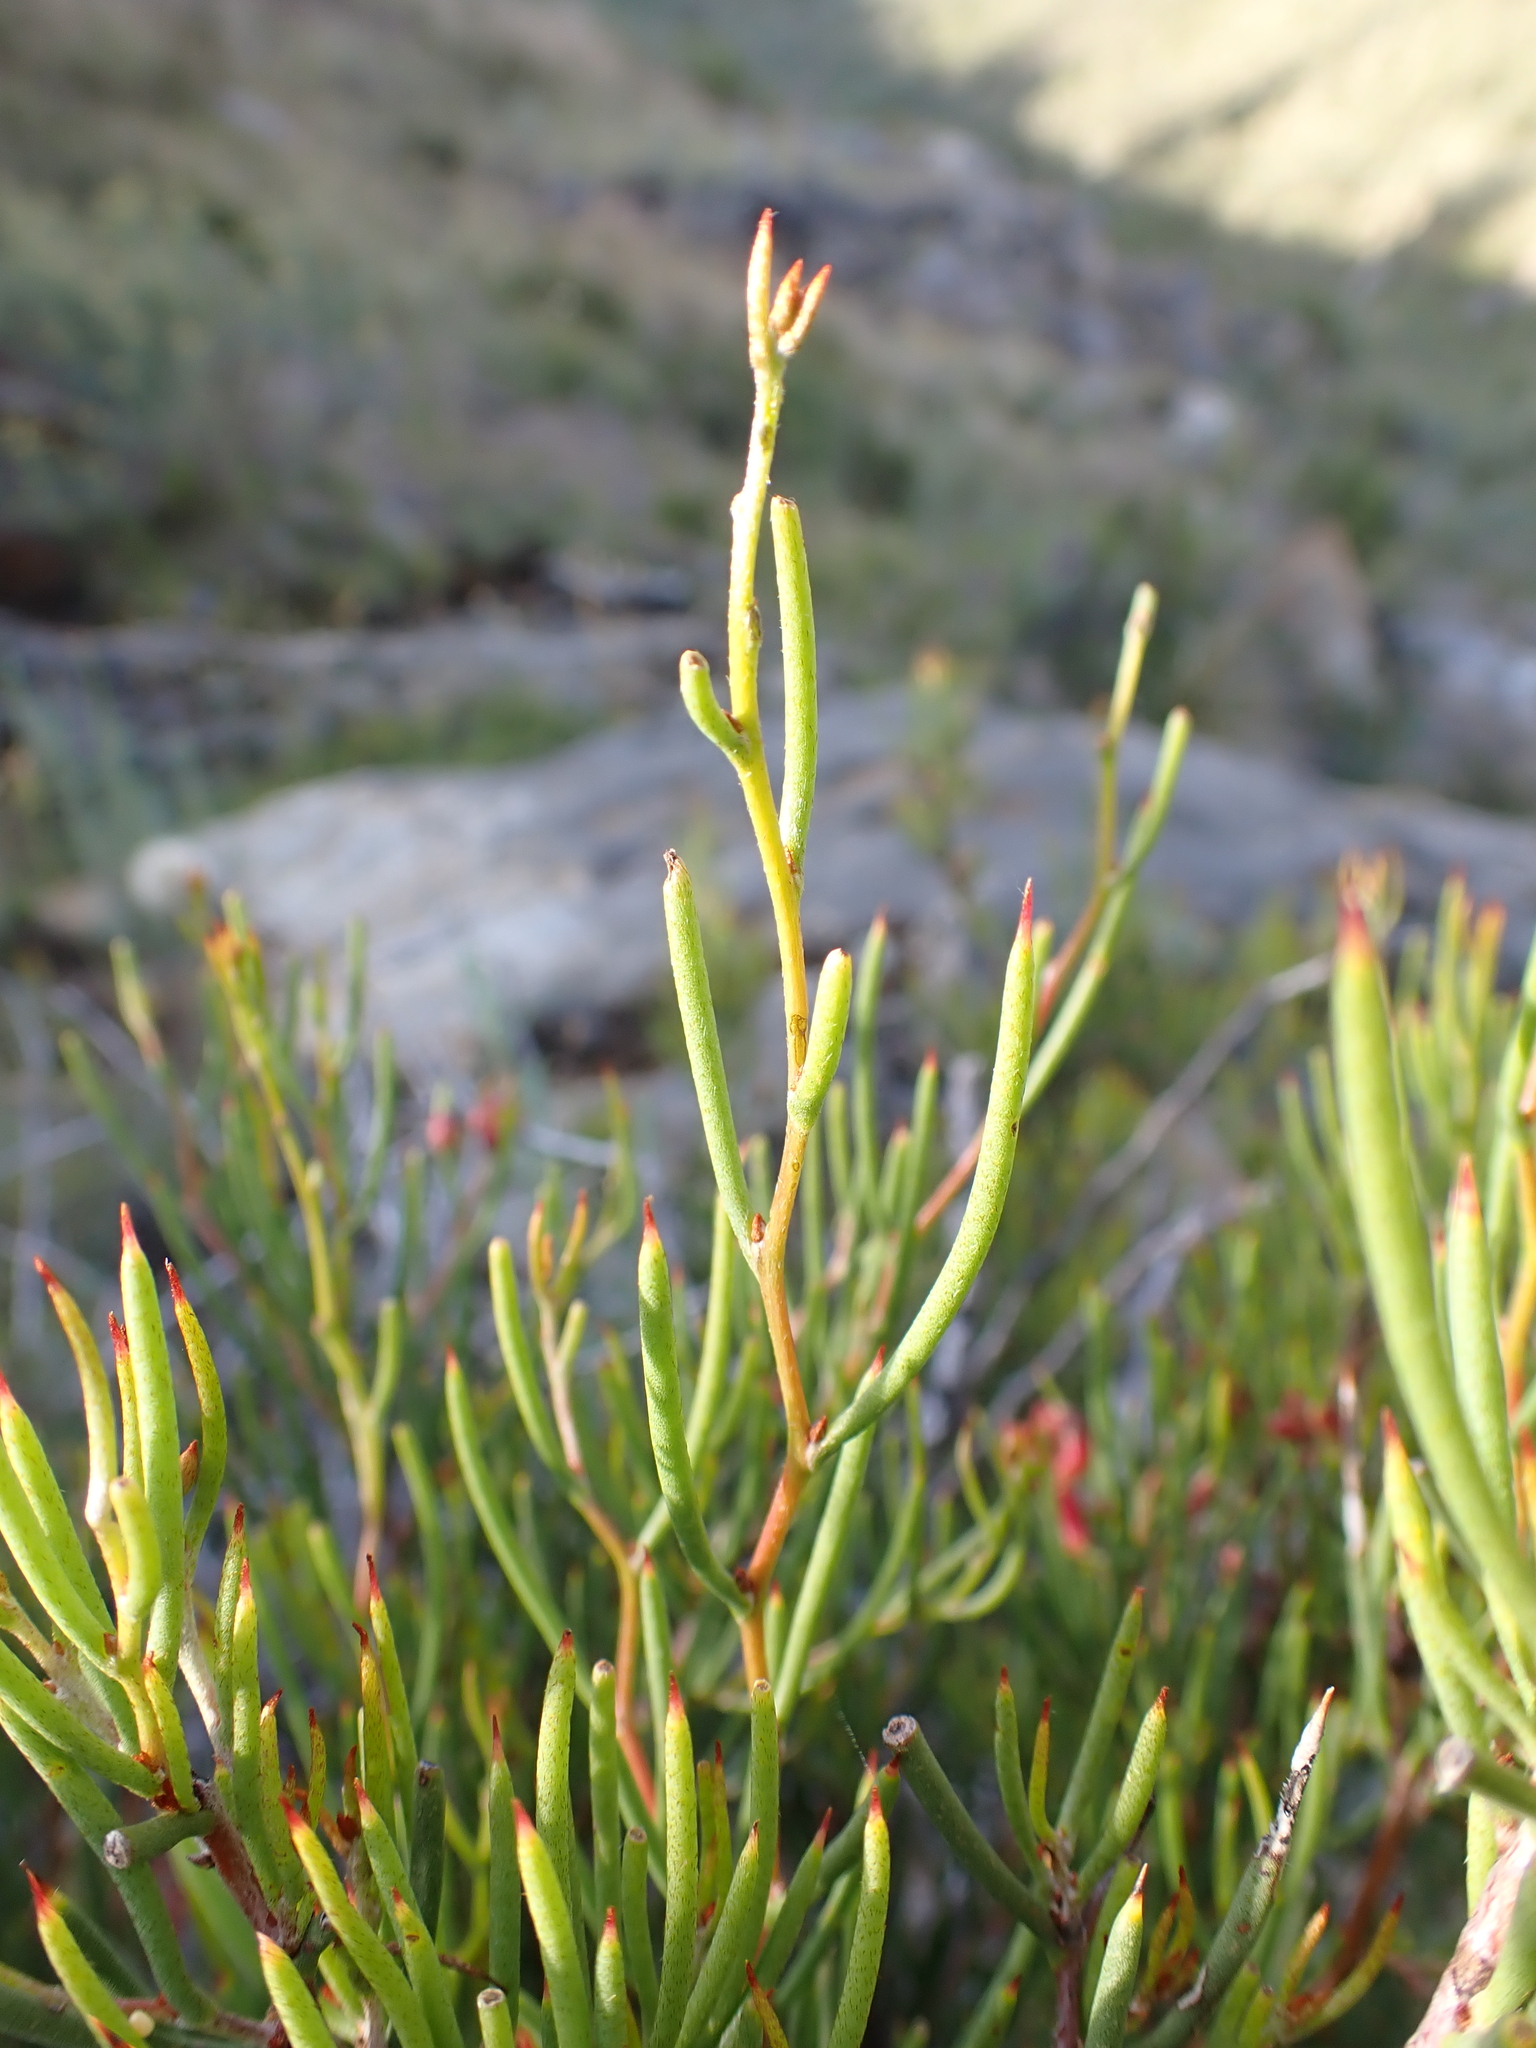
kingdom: Plantae
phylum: Tracheophyta
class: Magnoliopsida
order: Proteales
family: Proteaceae
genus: Hakea
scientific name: Hakea microcarpa
